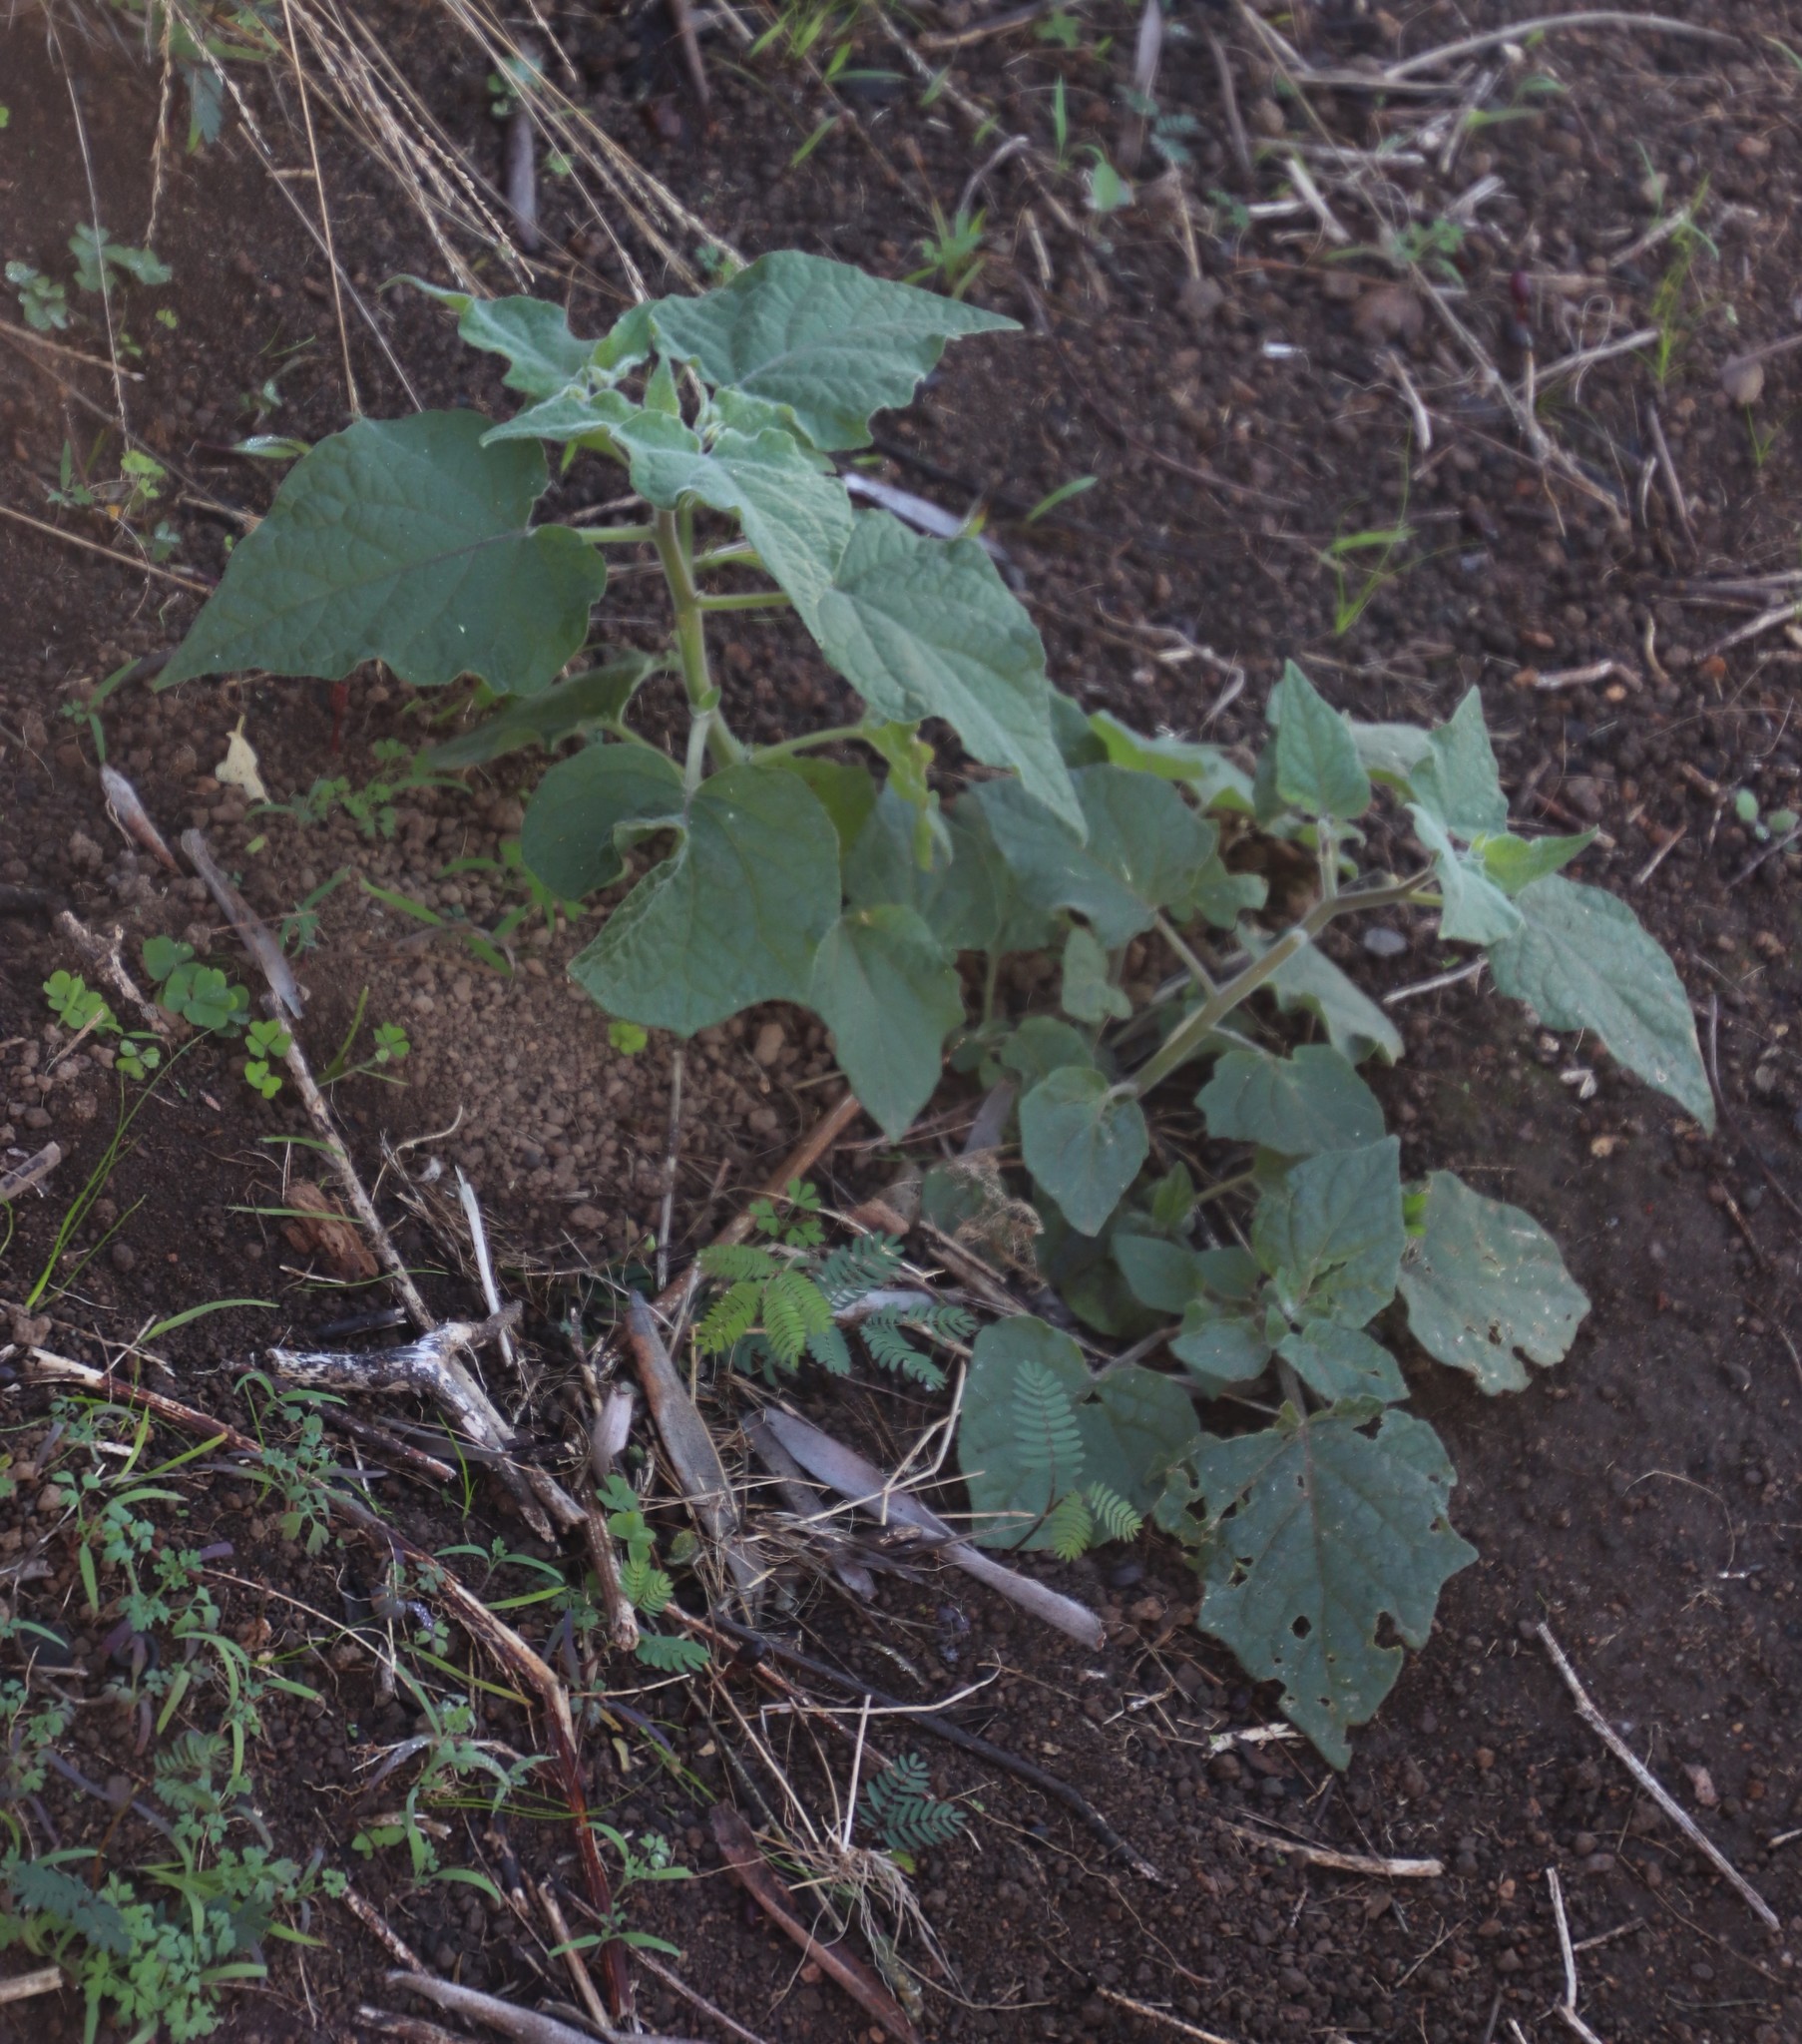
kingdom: Plantae
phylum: Tracheophyta
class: Magnoliopsida
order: Solanales
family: Solanaceae
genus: Physalis
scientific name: Physalis peruviana
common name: Cape-gooseberry
